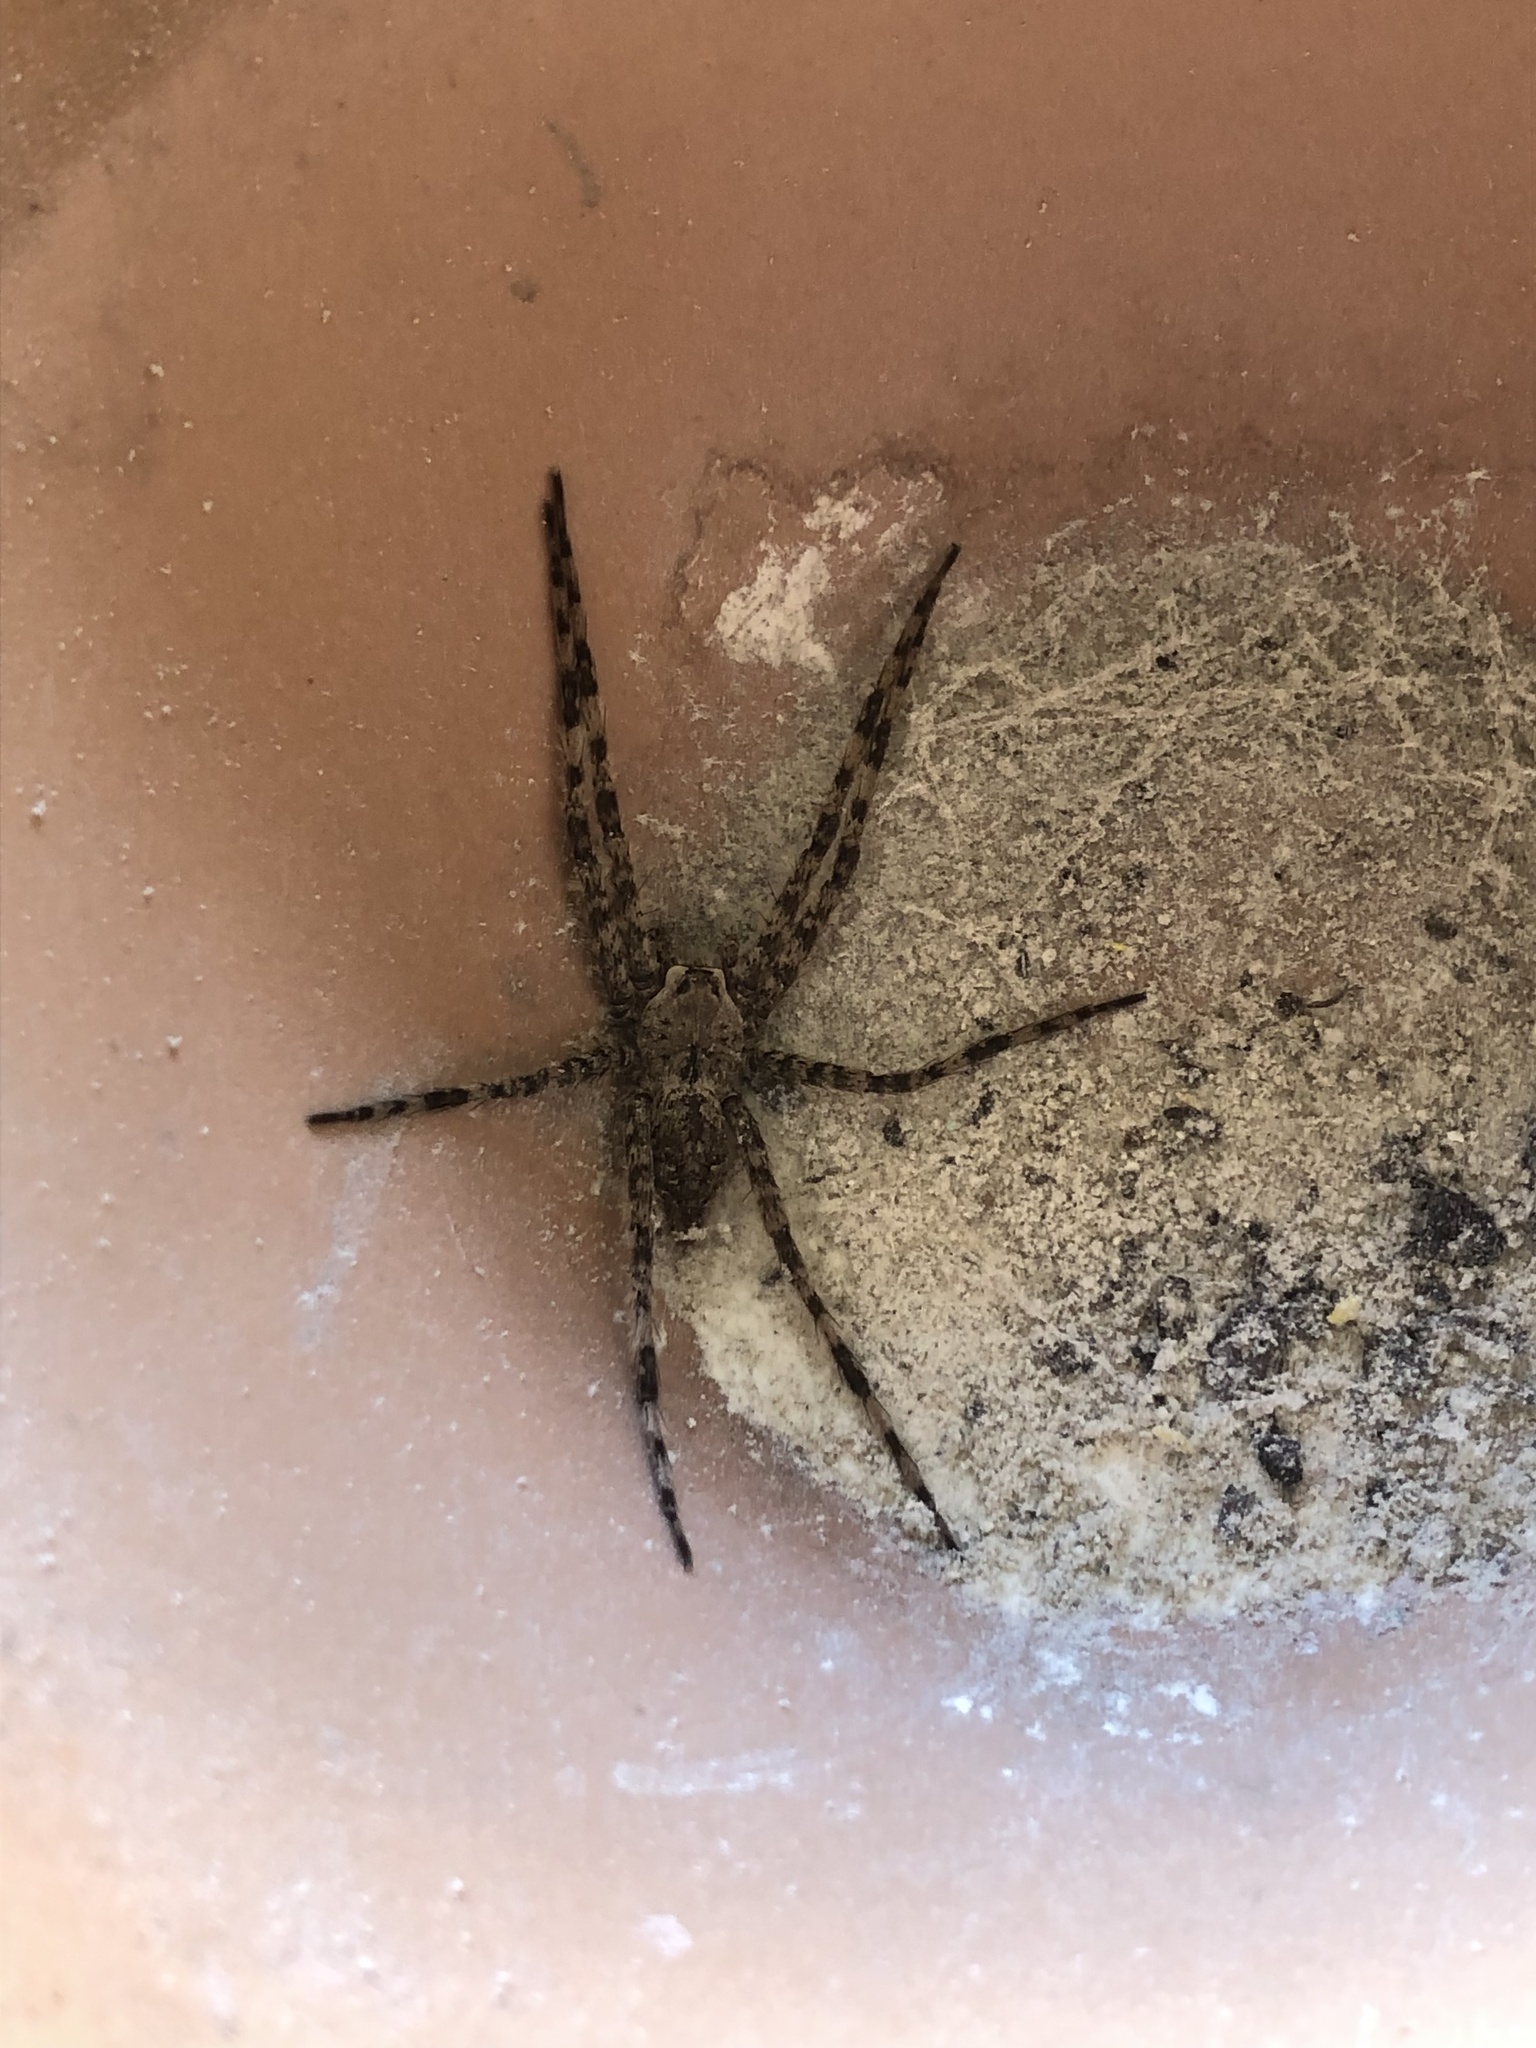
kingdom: Animalia
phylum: Arthropoda
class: Arachnida
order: Araneae
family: Pisauridae
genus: Dolomedes
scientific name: Dolomedes albineus
